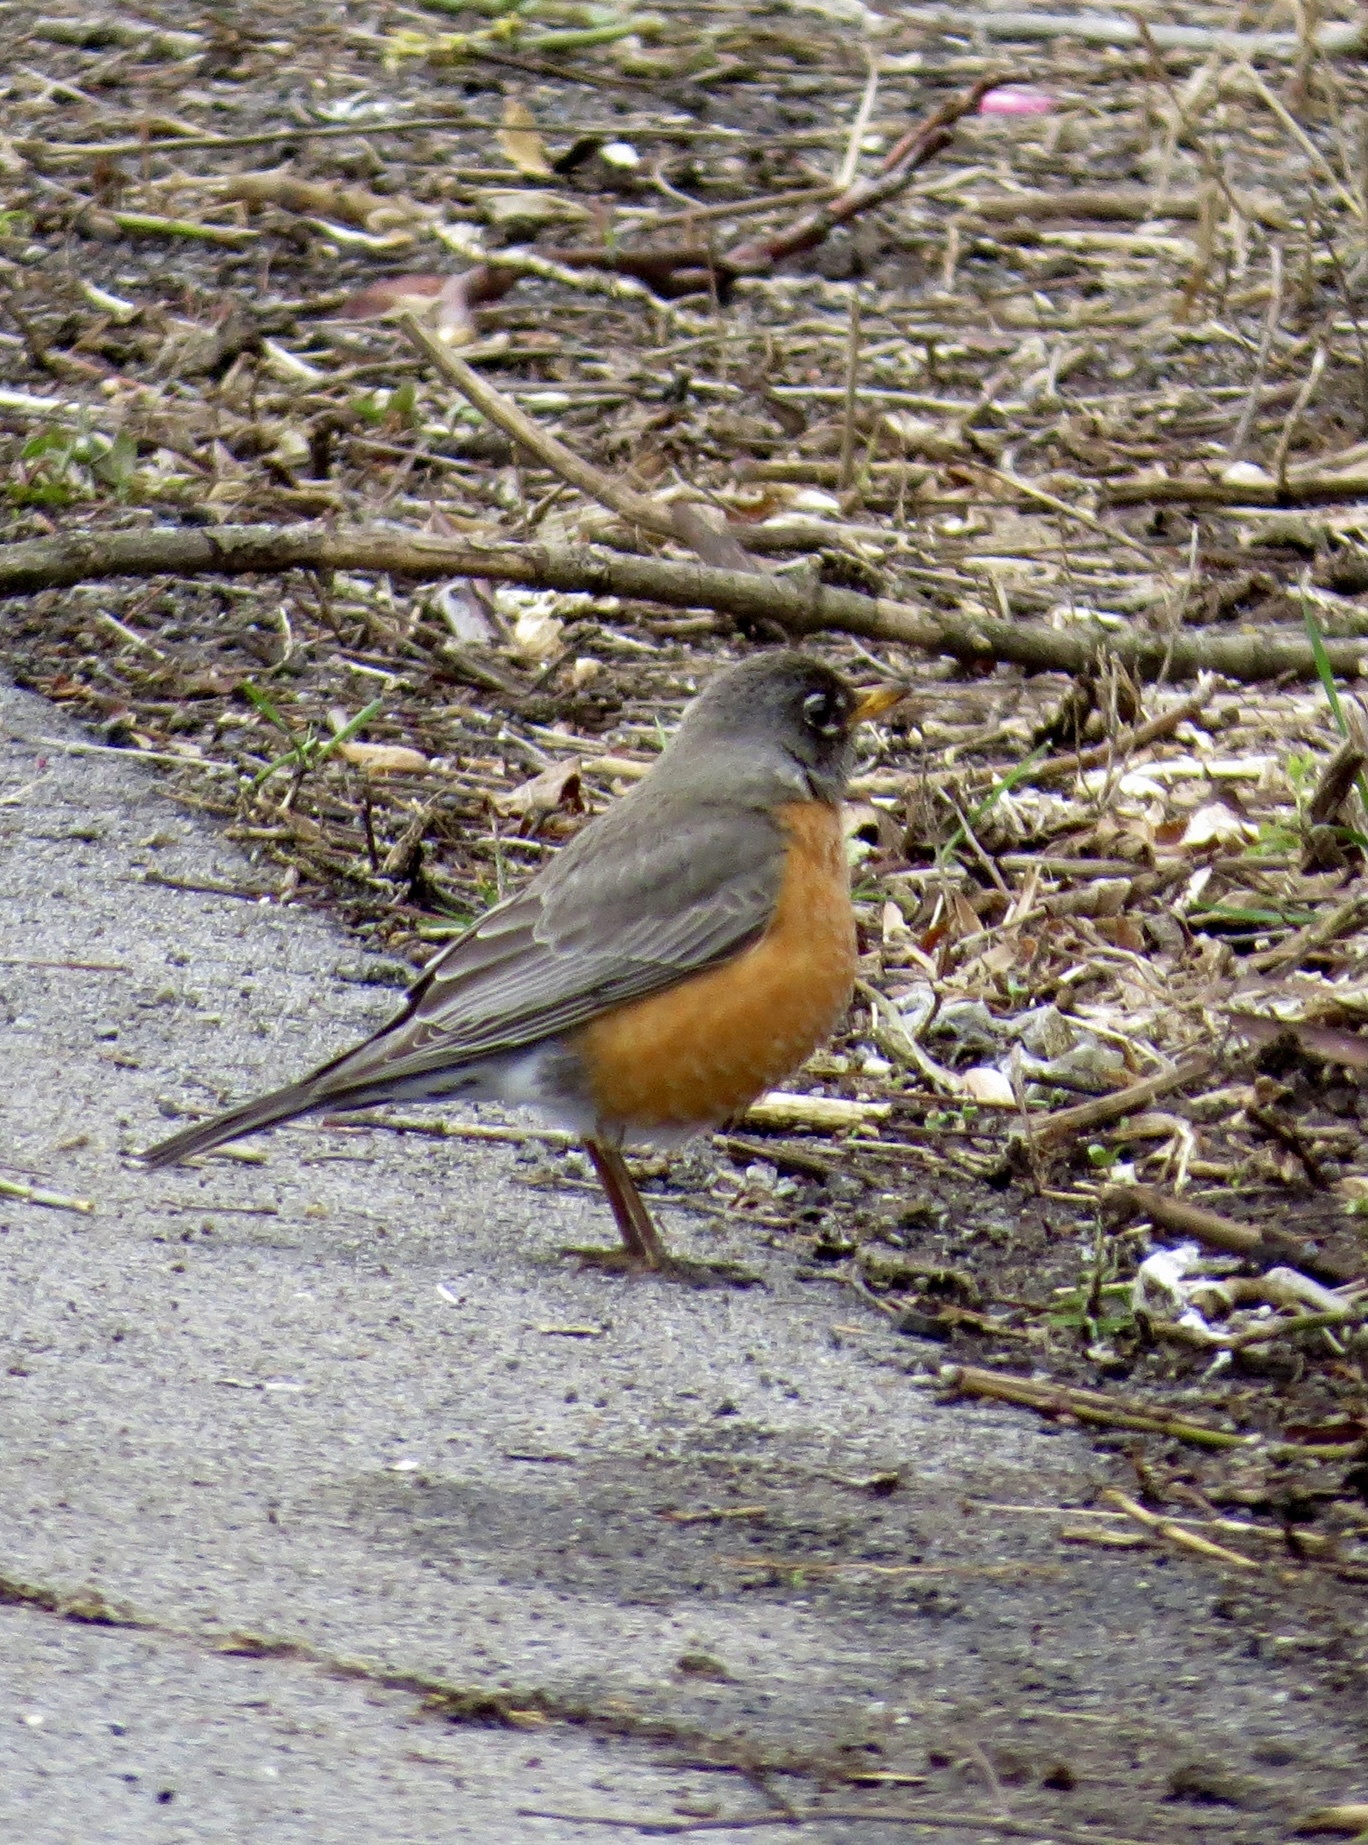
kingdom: Animalia
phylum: Chordata
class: Aves
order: Passeriformes
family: Turdidae
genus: Turdus
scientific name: Turdus migratorius
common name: American robin
